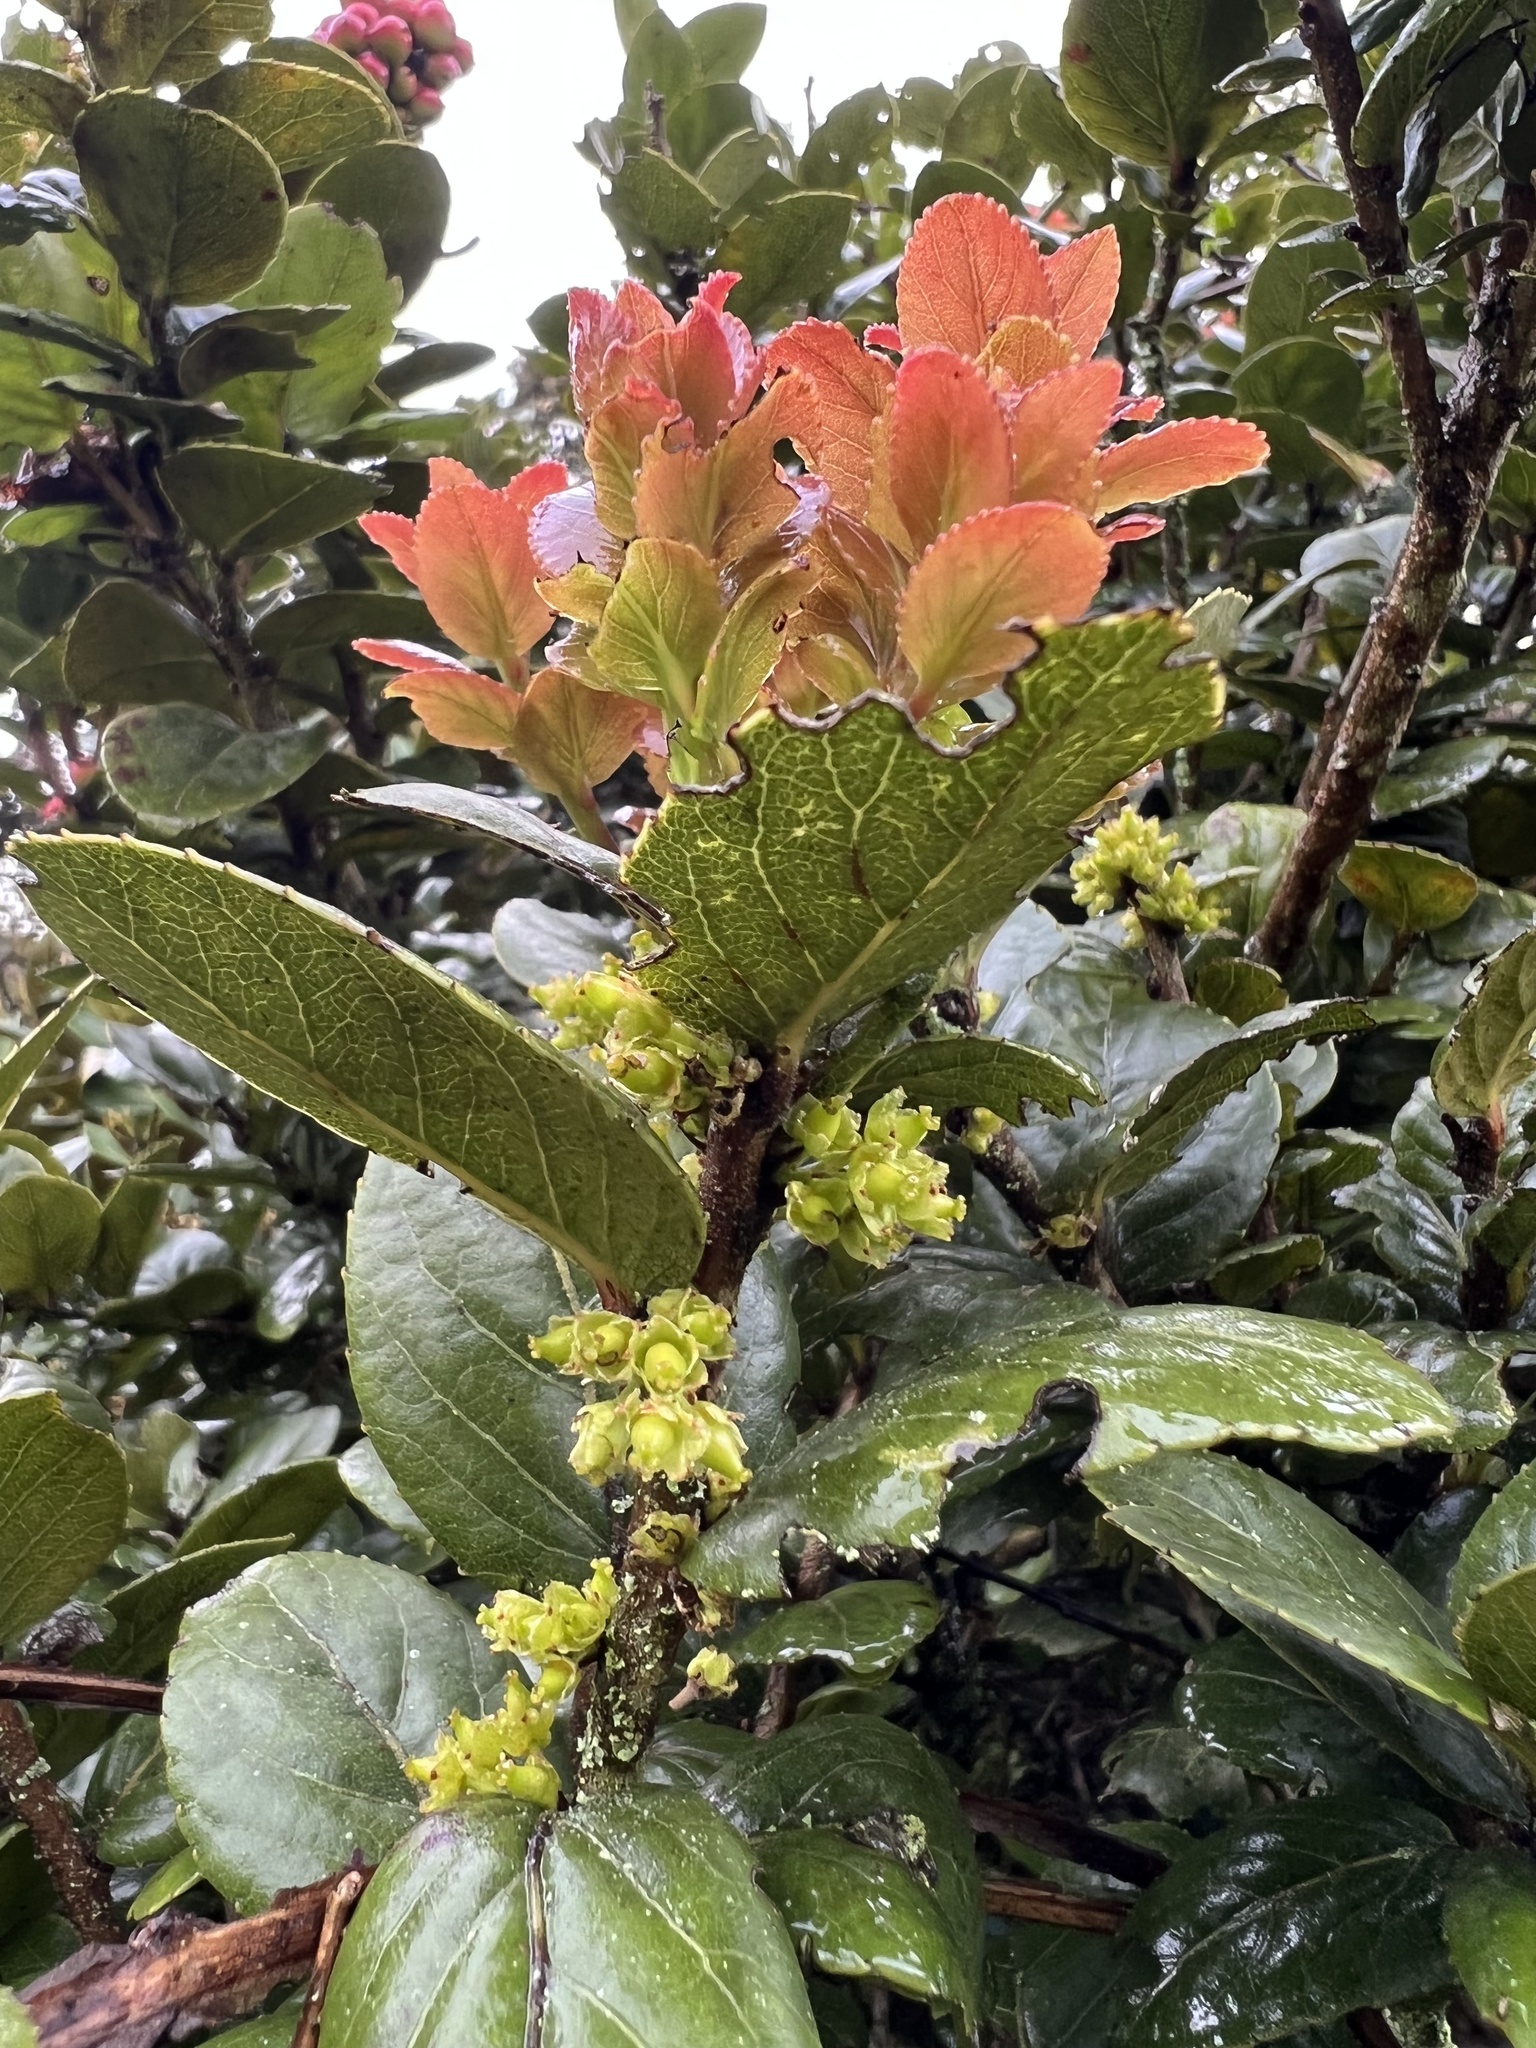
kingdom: Plantae
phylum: Tracheophyta
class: Magnoliopsida
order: Malpighiales
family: Salicaceae
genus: Xylosma
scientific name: Xylosma spiculifera
